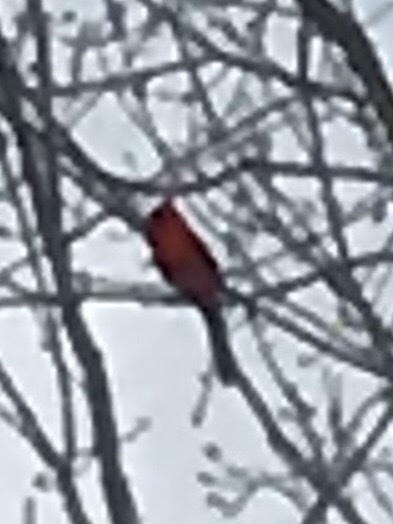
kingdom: Animalia
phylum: Chordata
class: Aves
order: Passeriformes
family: Cardinalidae
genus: Cardinalis
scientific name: Cardinalis cardinalis
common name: Northern cardinal
